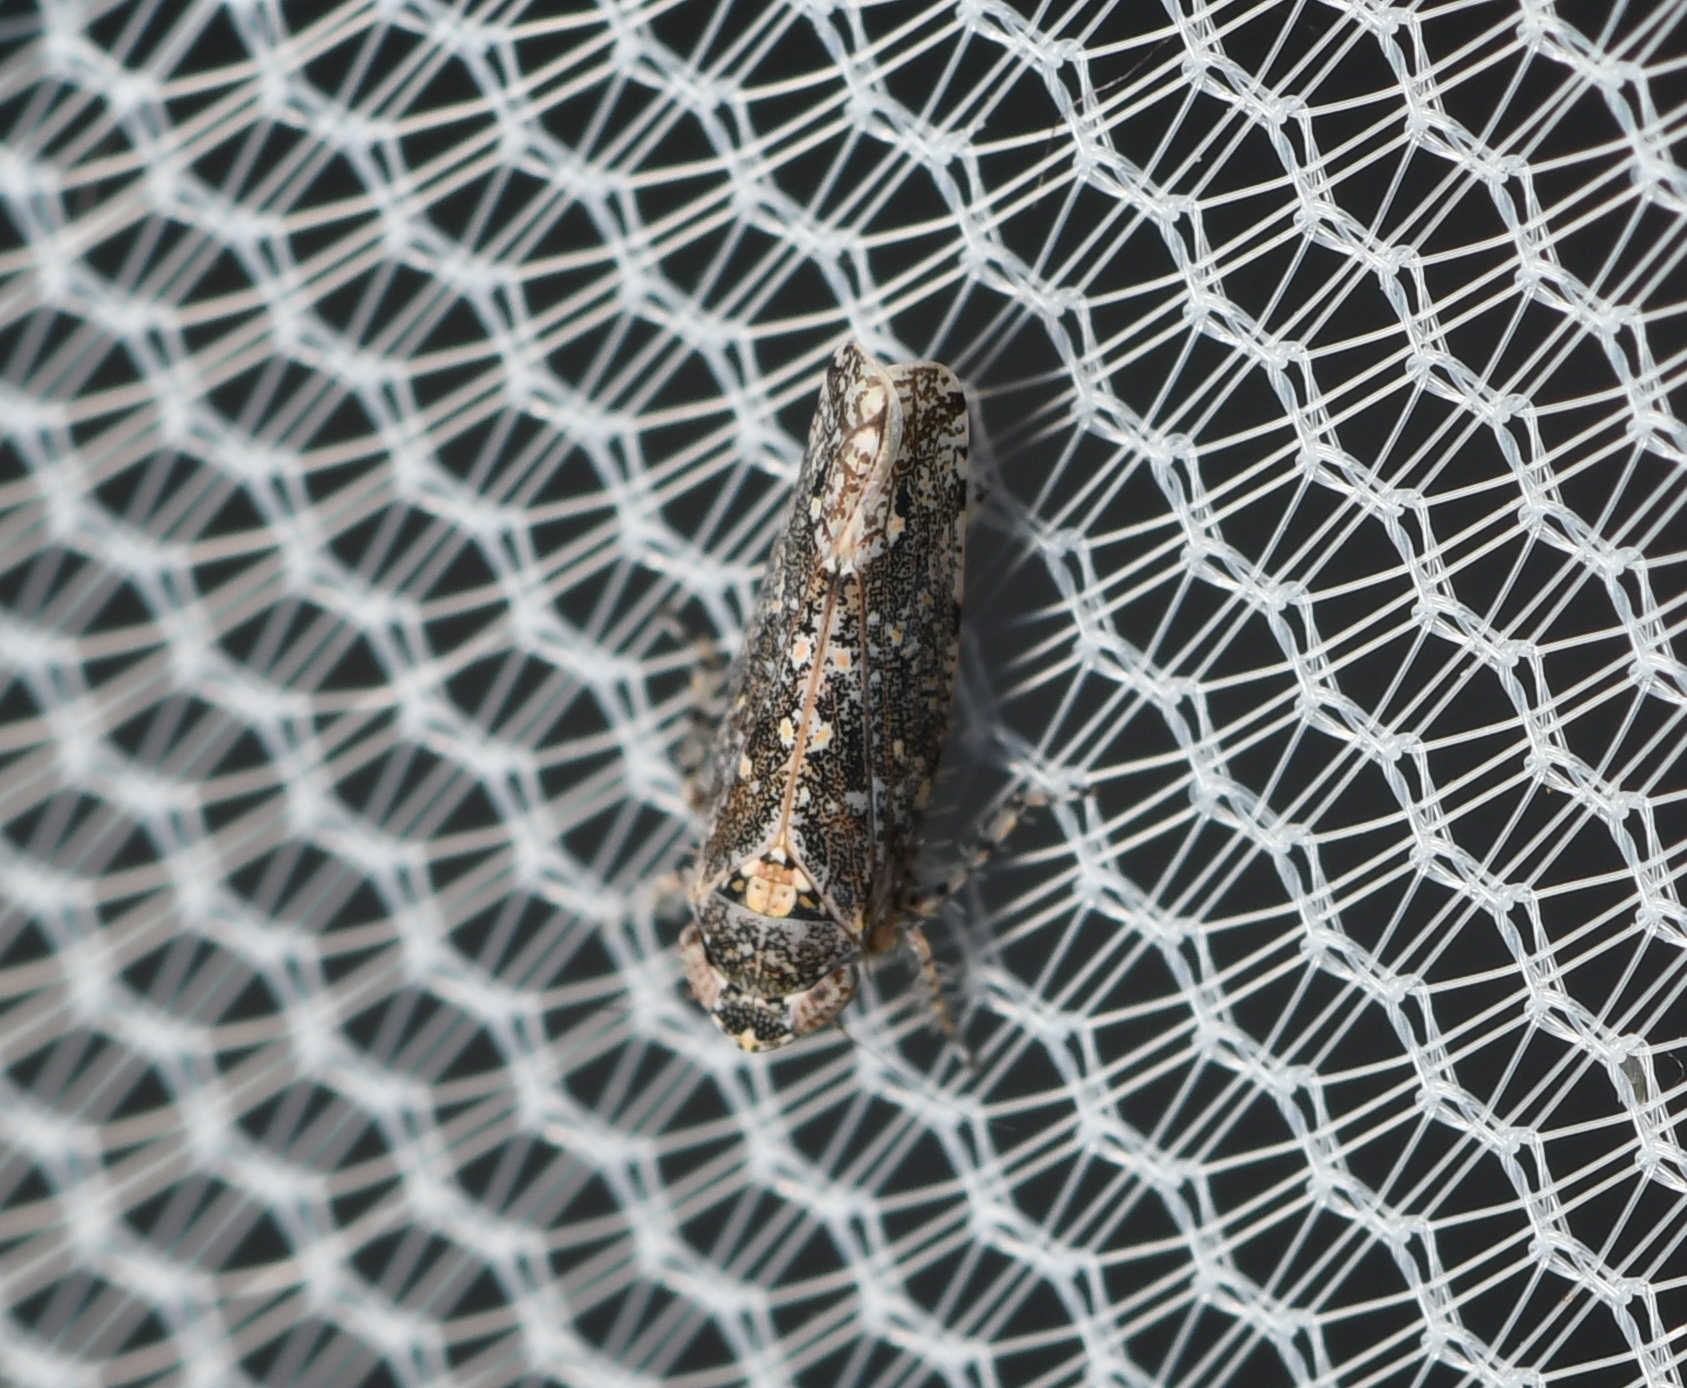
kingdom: Animalia
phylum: Arthropoda
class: Insecta
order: Hemiptera
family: Cicadellidae
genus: Dixianus
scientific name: Dixianus utahnus
